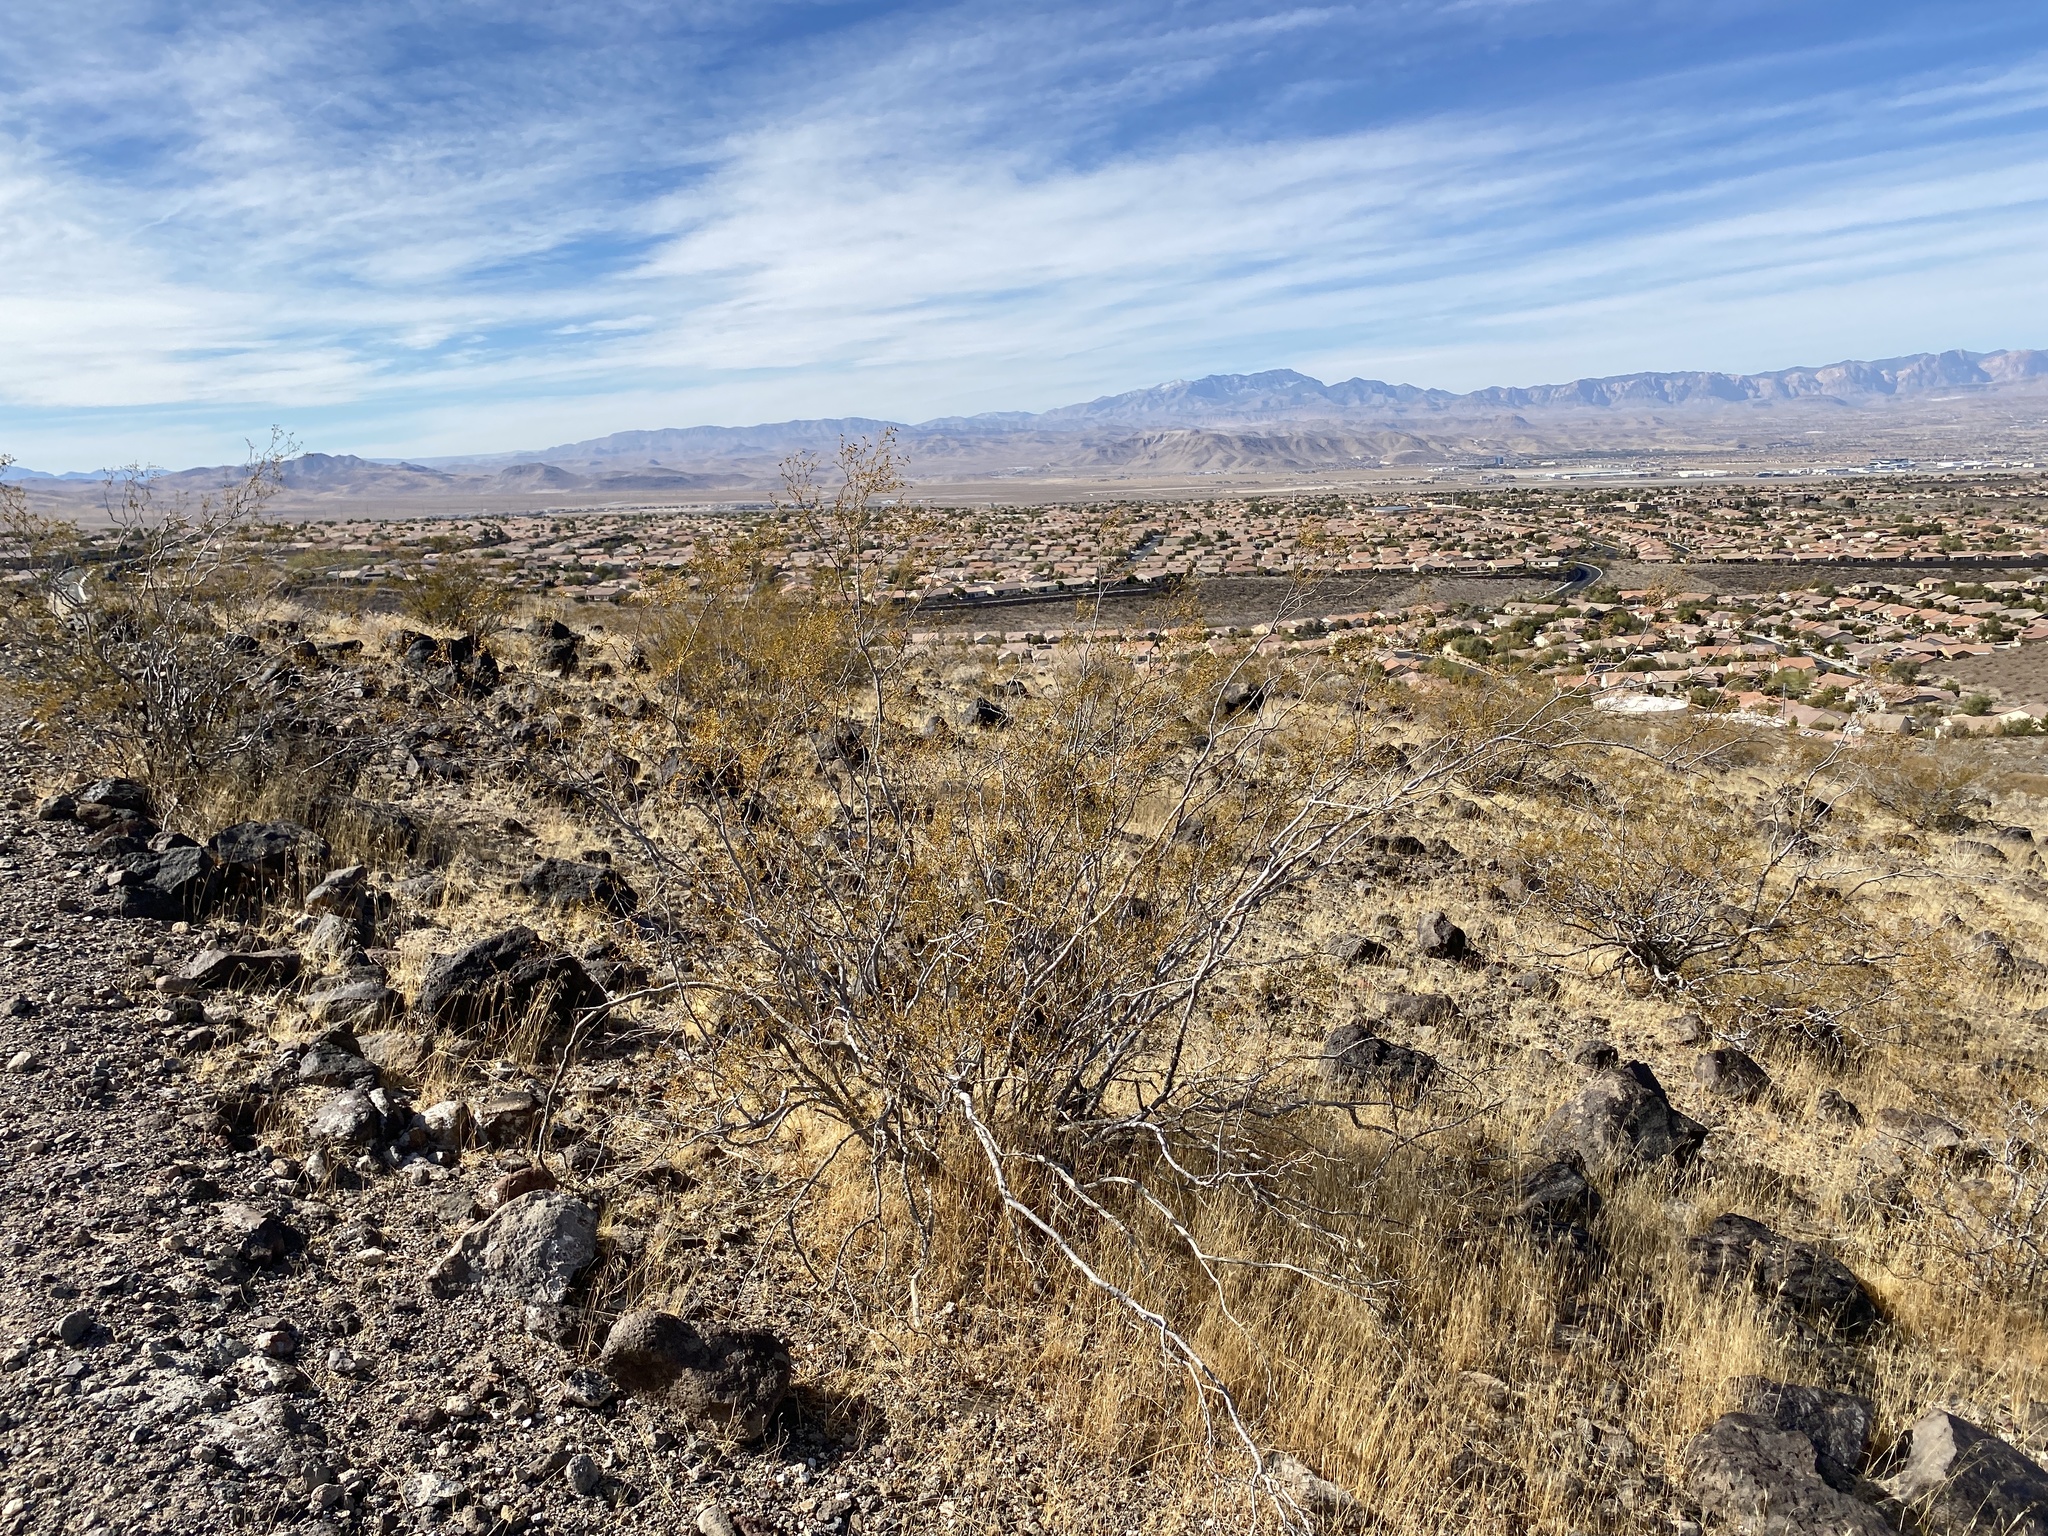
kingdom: Plantae
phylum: Tracheophyta
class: Magnoliopsida
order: Zygophyllales
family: Zygophyllaceae
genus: Larrea
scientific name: Larrea tridentata
